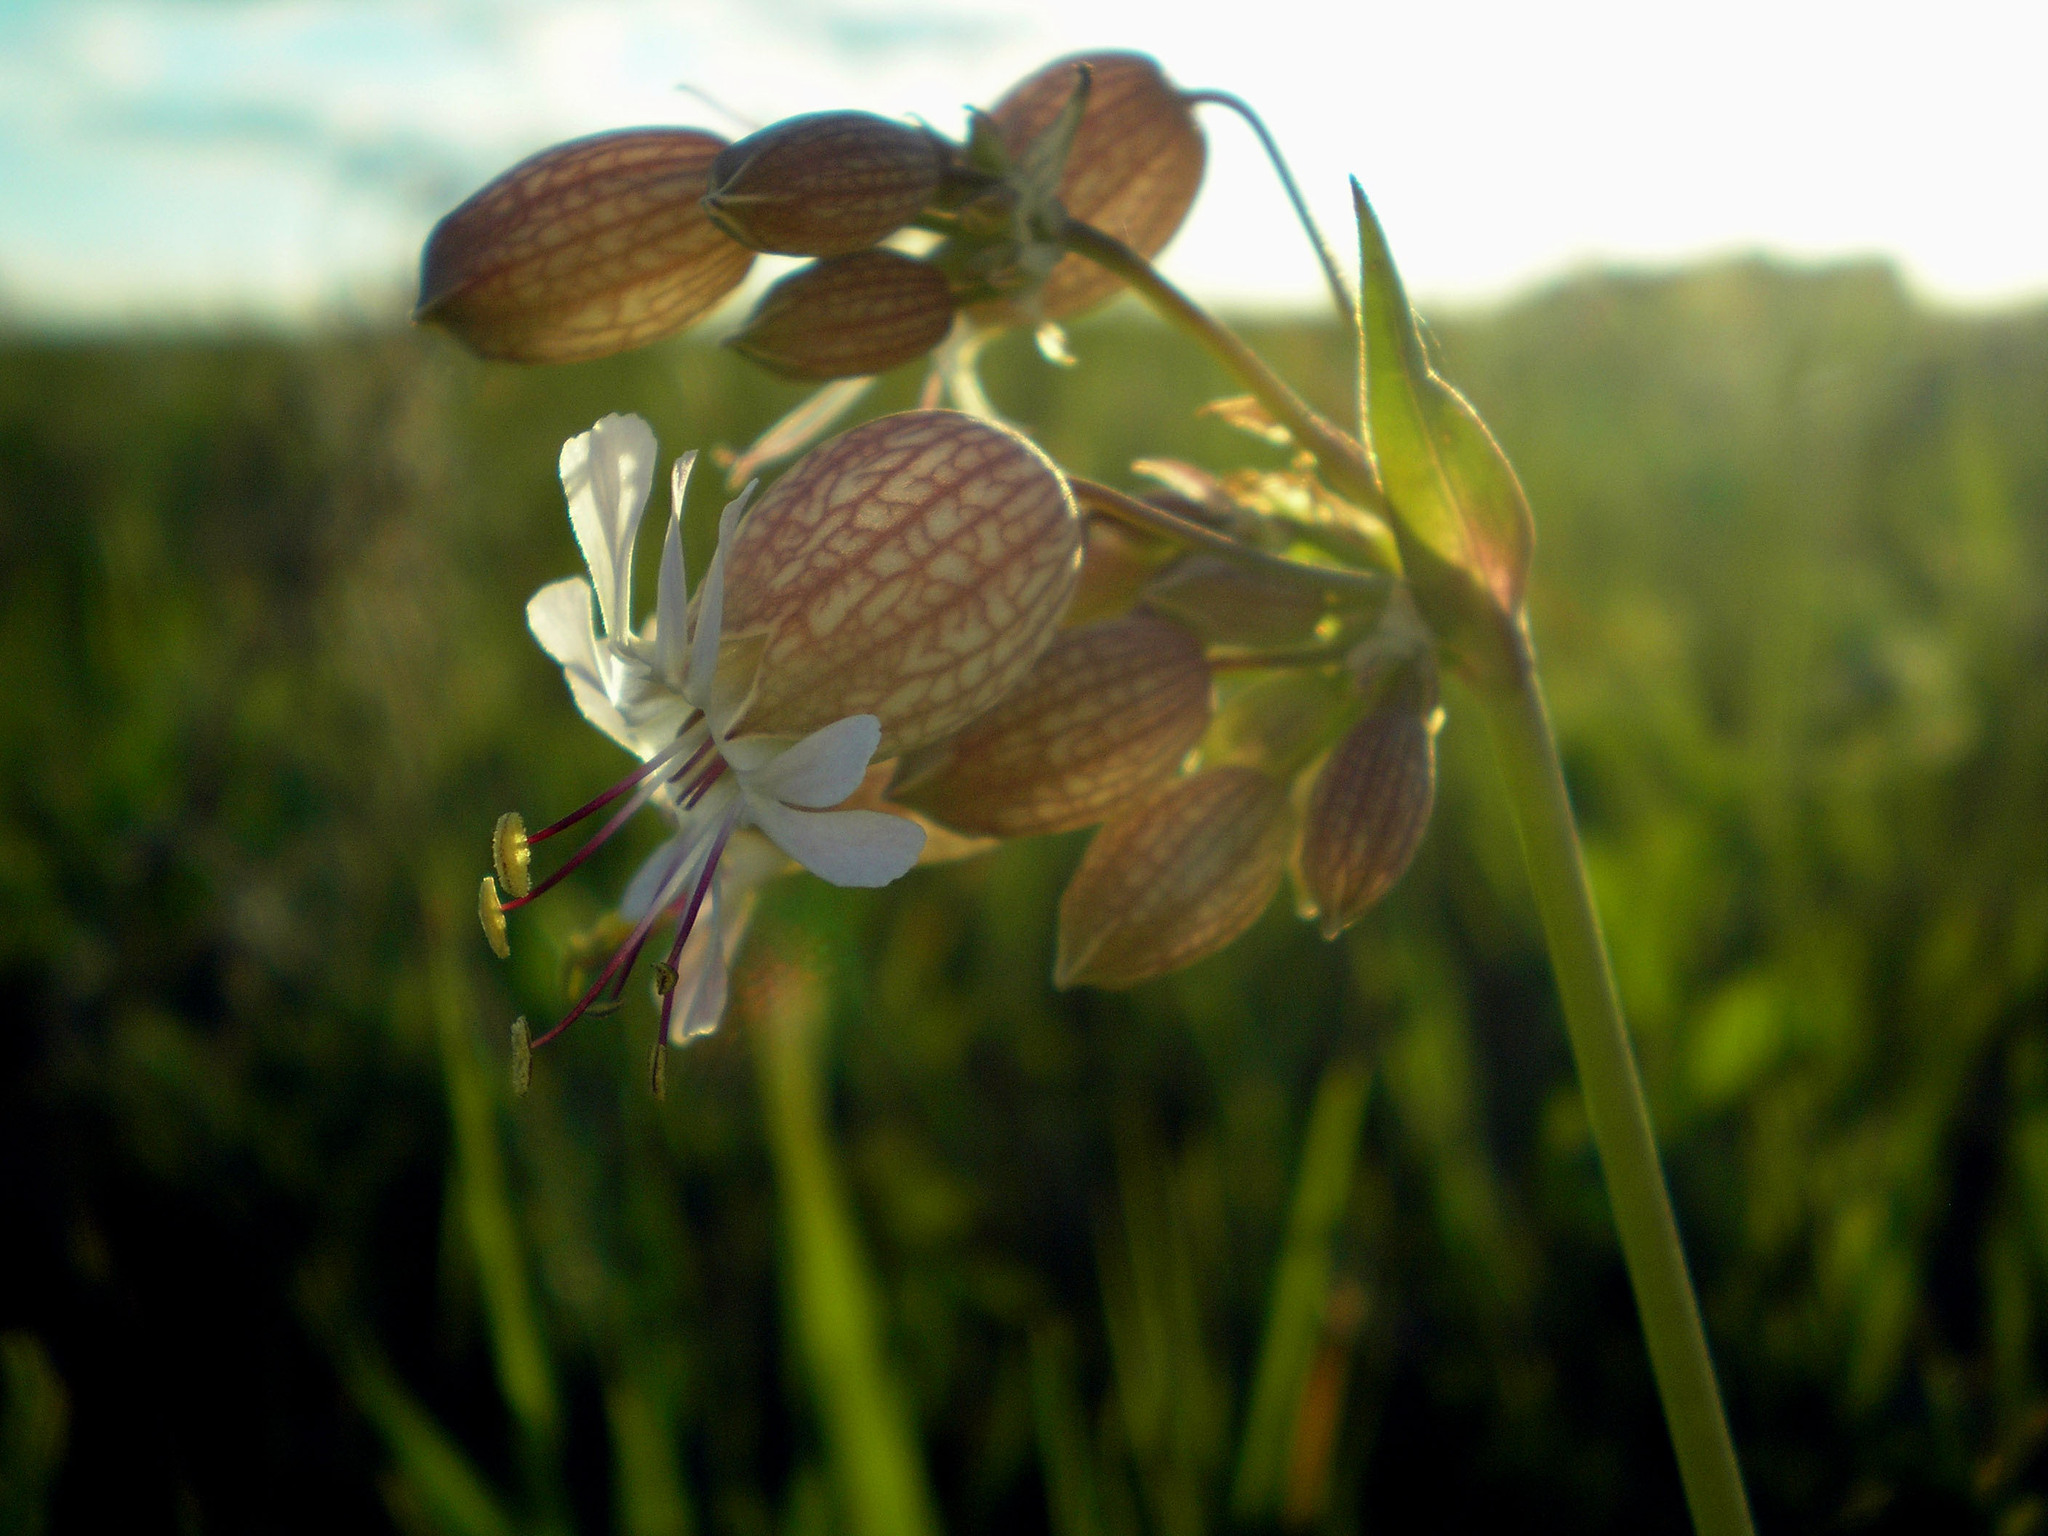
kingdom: Plantae
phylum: Tracheophyta
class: Magnoliopsida
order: Caryophyllales
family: Caryophyllaceae
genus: Silene
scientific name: Silene vulgaris
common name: Bladder campion
